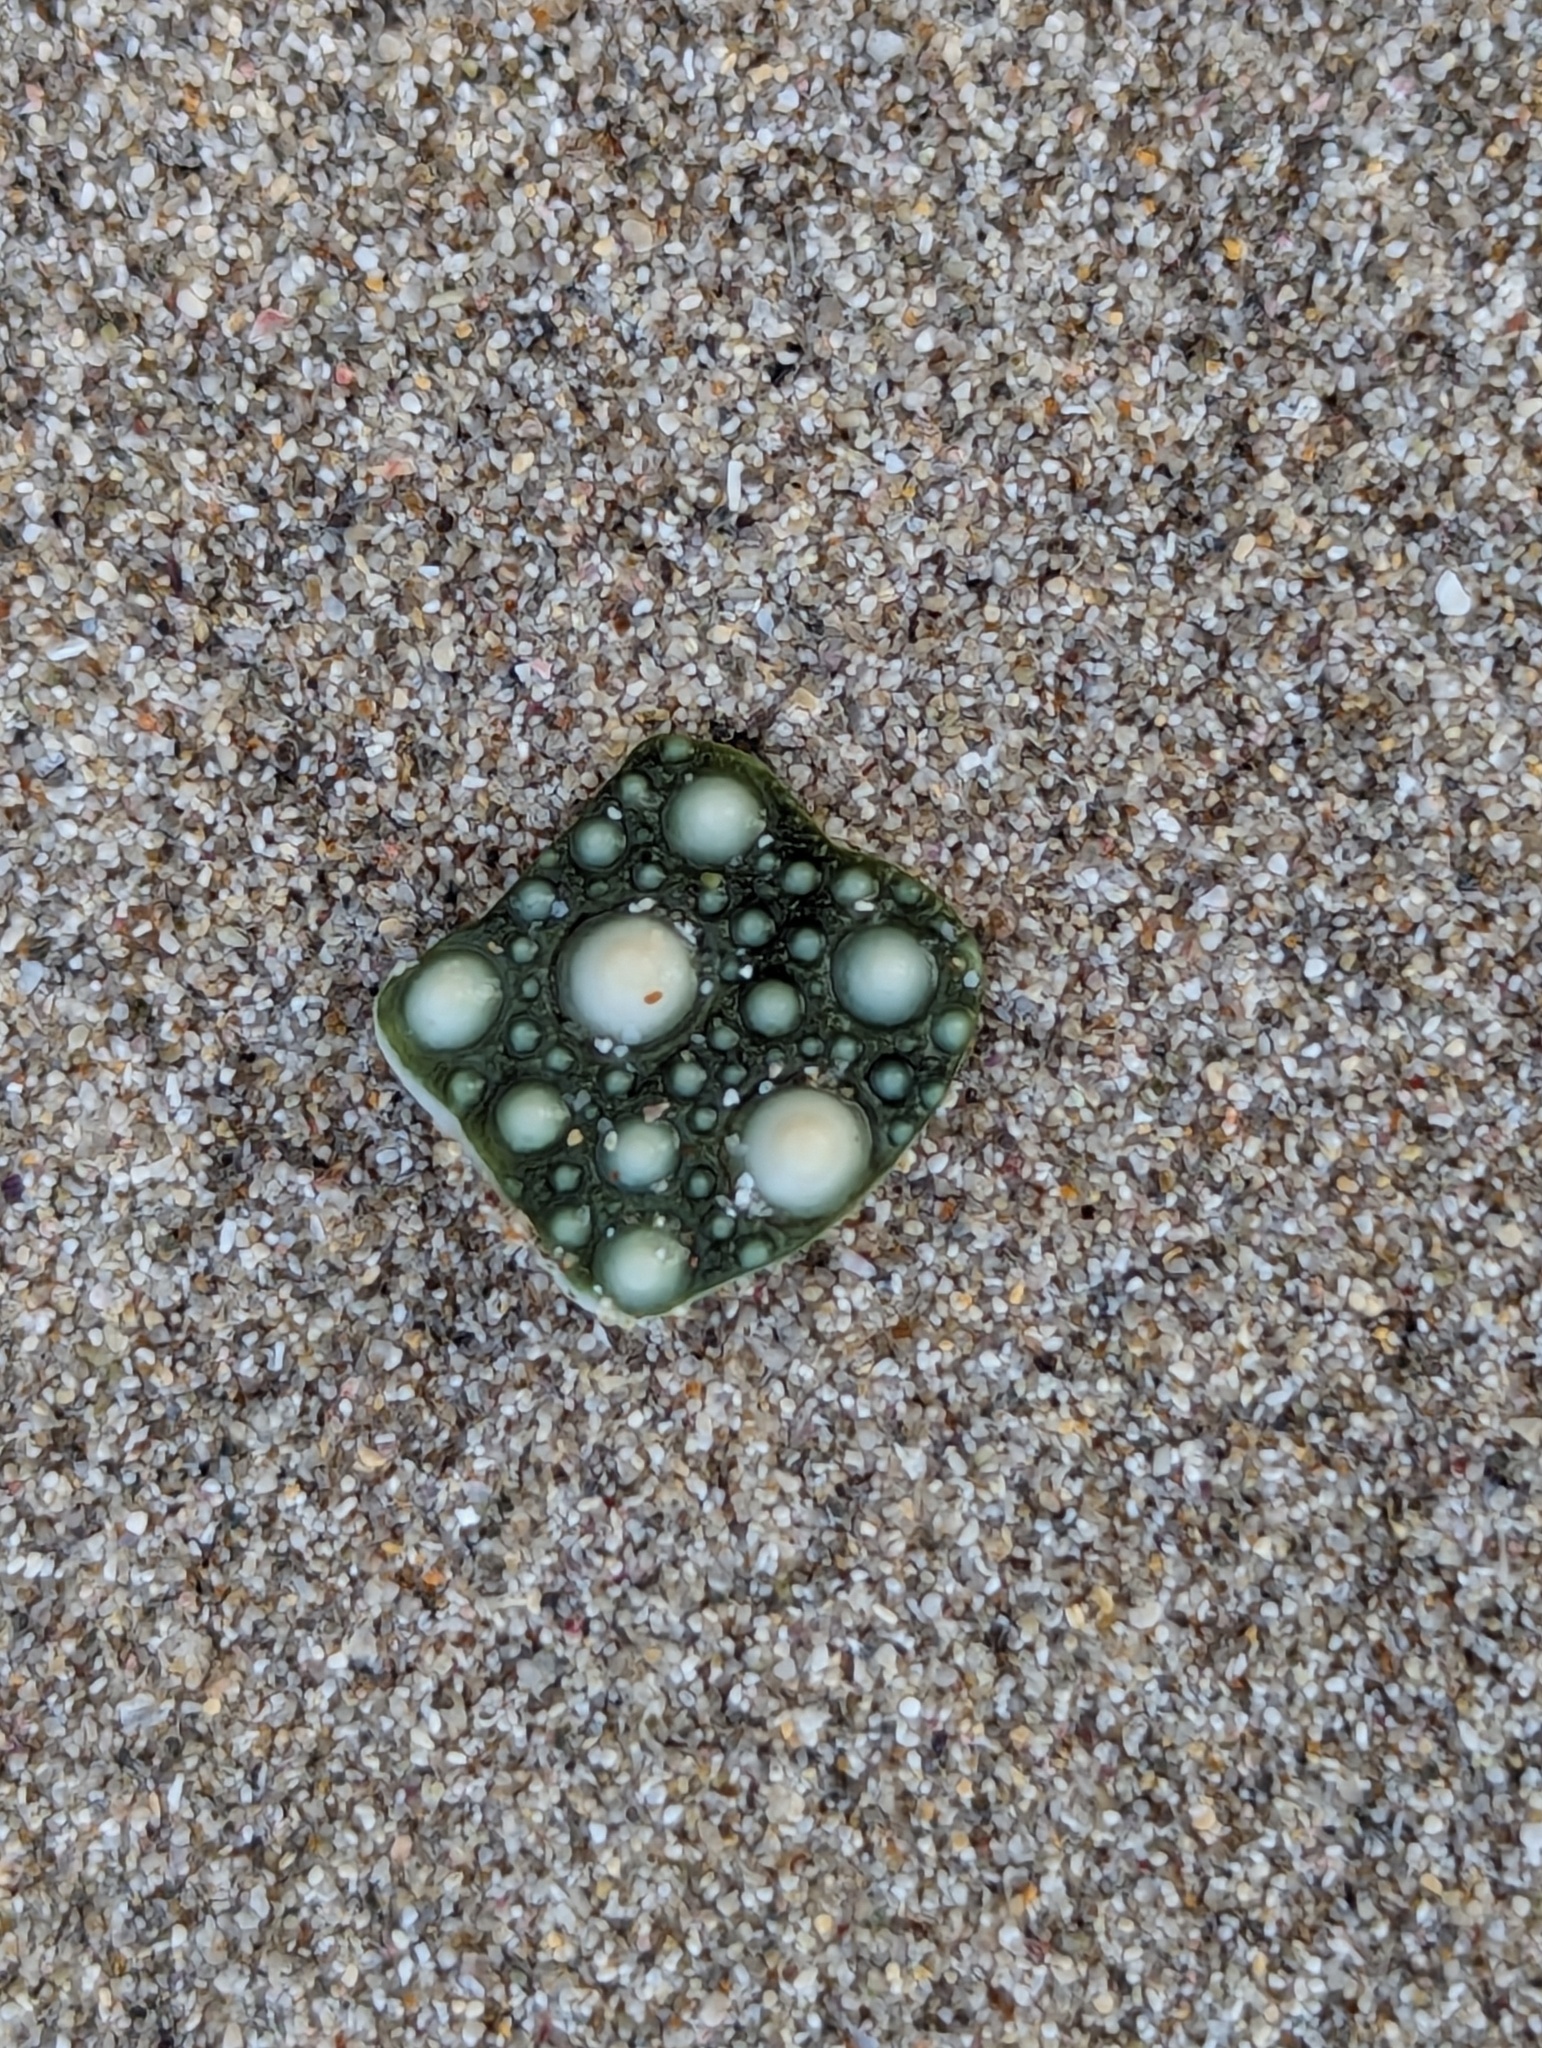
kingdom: Animalia
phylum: Echinodermata
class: Echinoidea
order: Camarodonta
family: Echinometridae
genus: Evechinus
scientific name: Evechinus chloroticus
